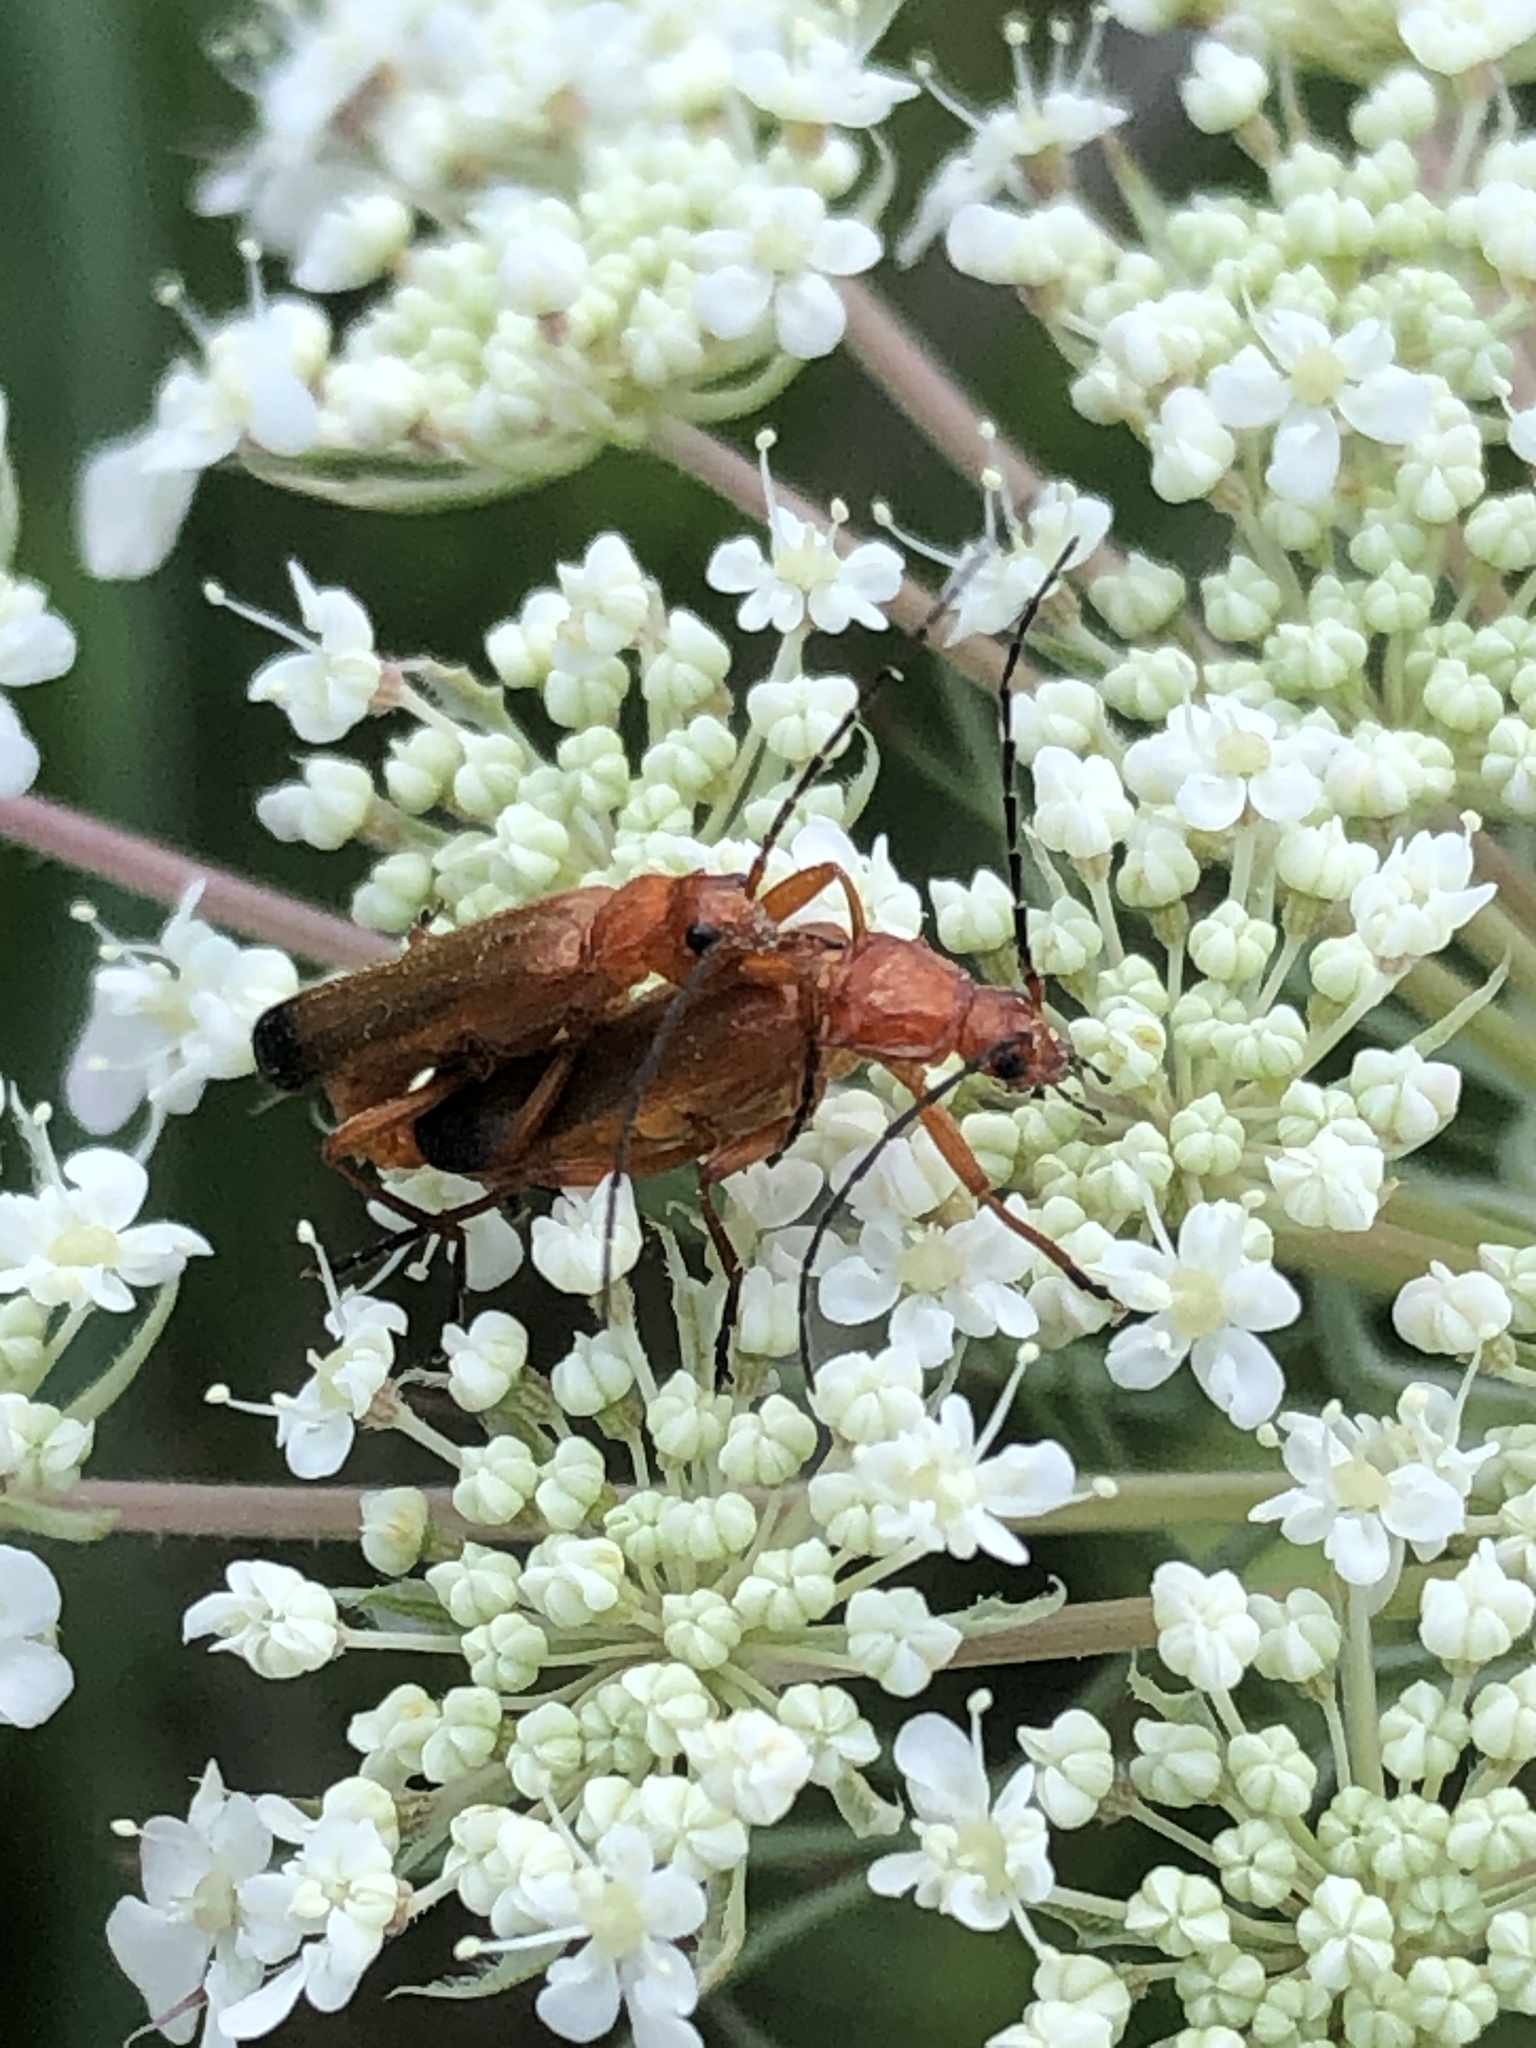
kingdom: Animalia
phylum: Arthropoda
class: Insecta
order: Coleoptera
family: Cantharidae
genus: Rhagonycha
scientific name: Rhagonycha fulva
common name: Common red soldier beetle
